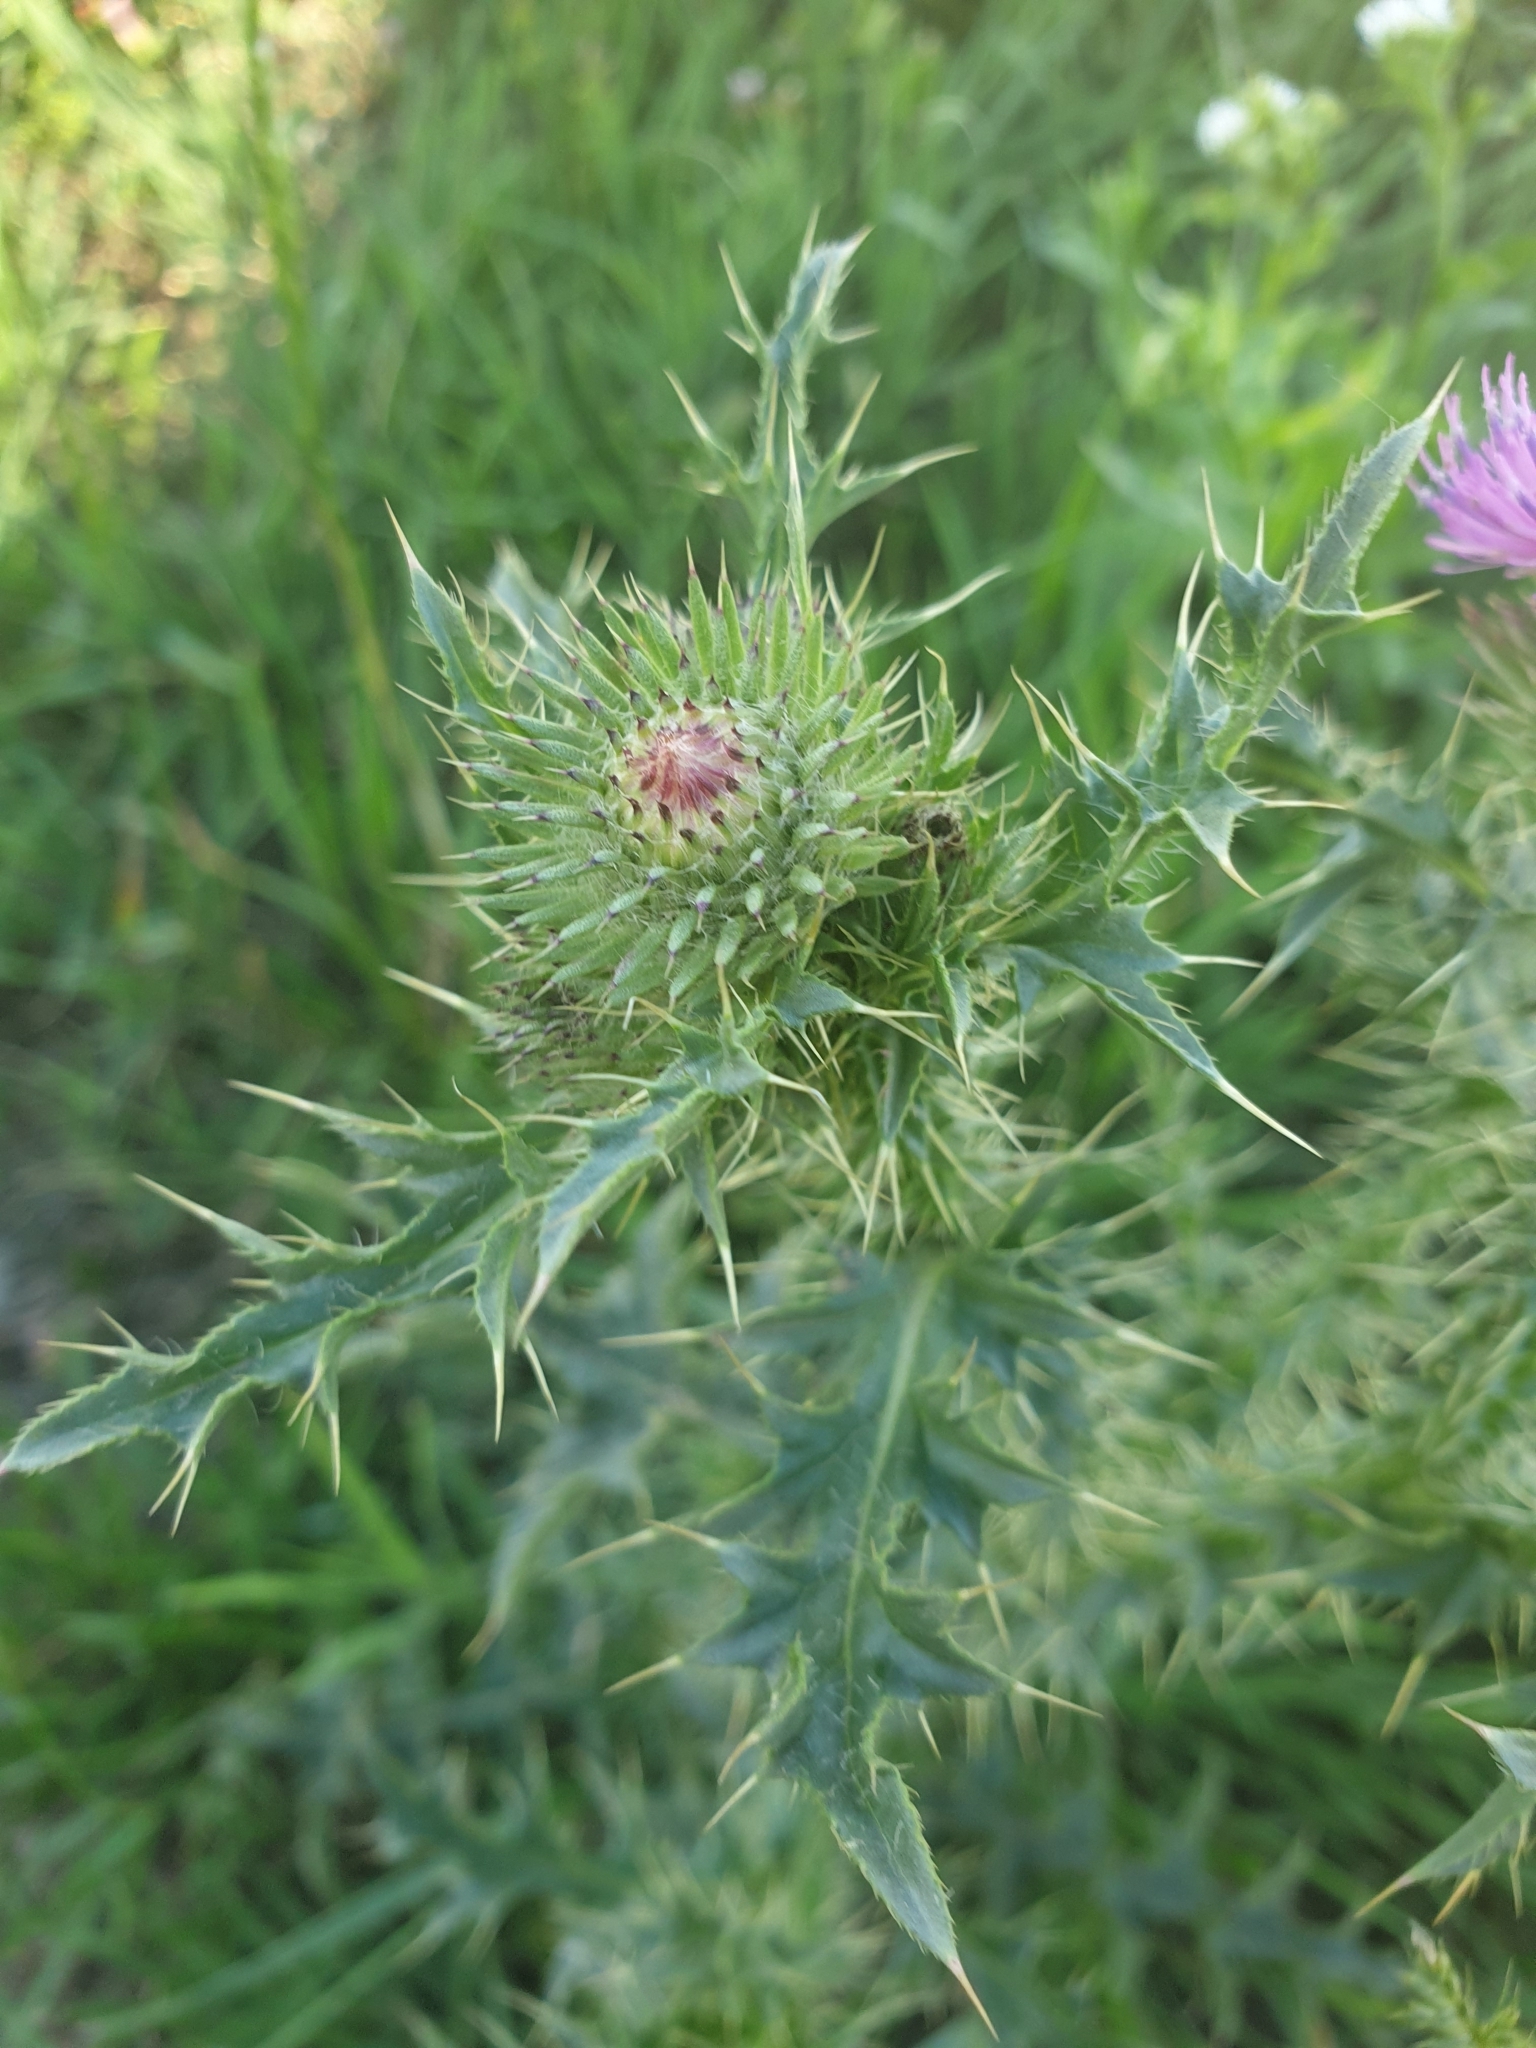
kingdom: Plantae
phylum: Tracheophyta
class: Magnoliopsida
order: Asterales
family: Asteraceae
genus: Carduus
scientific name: Carduus acanthoides
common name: Plumeless thistle
